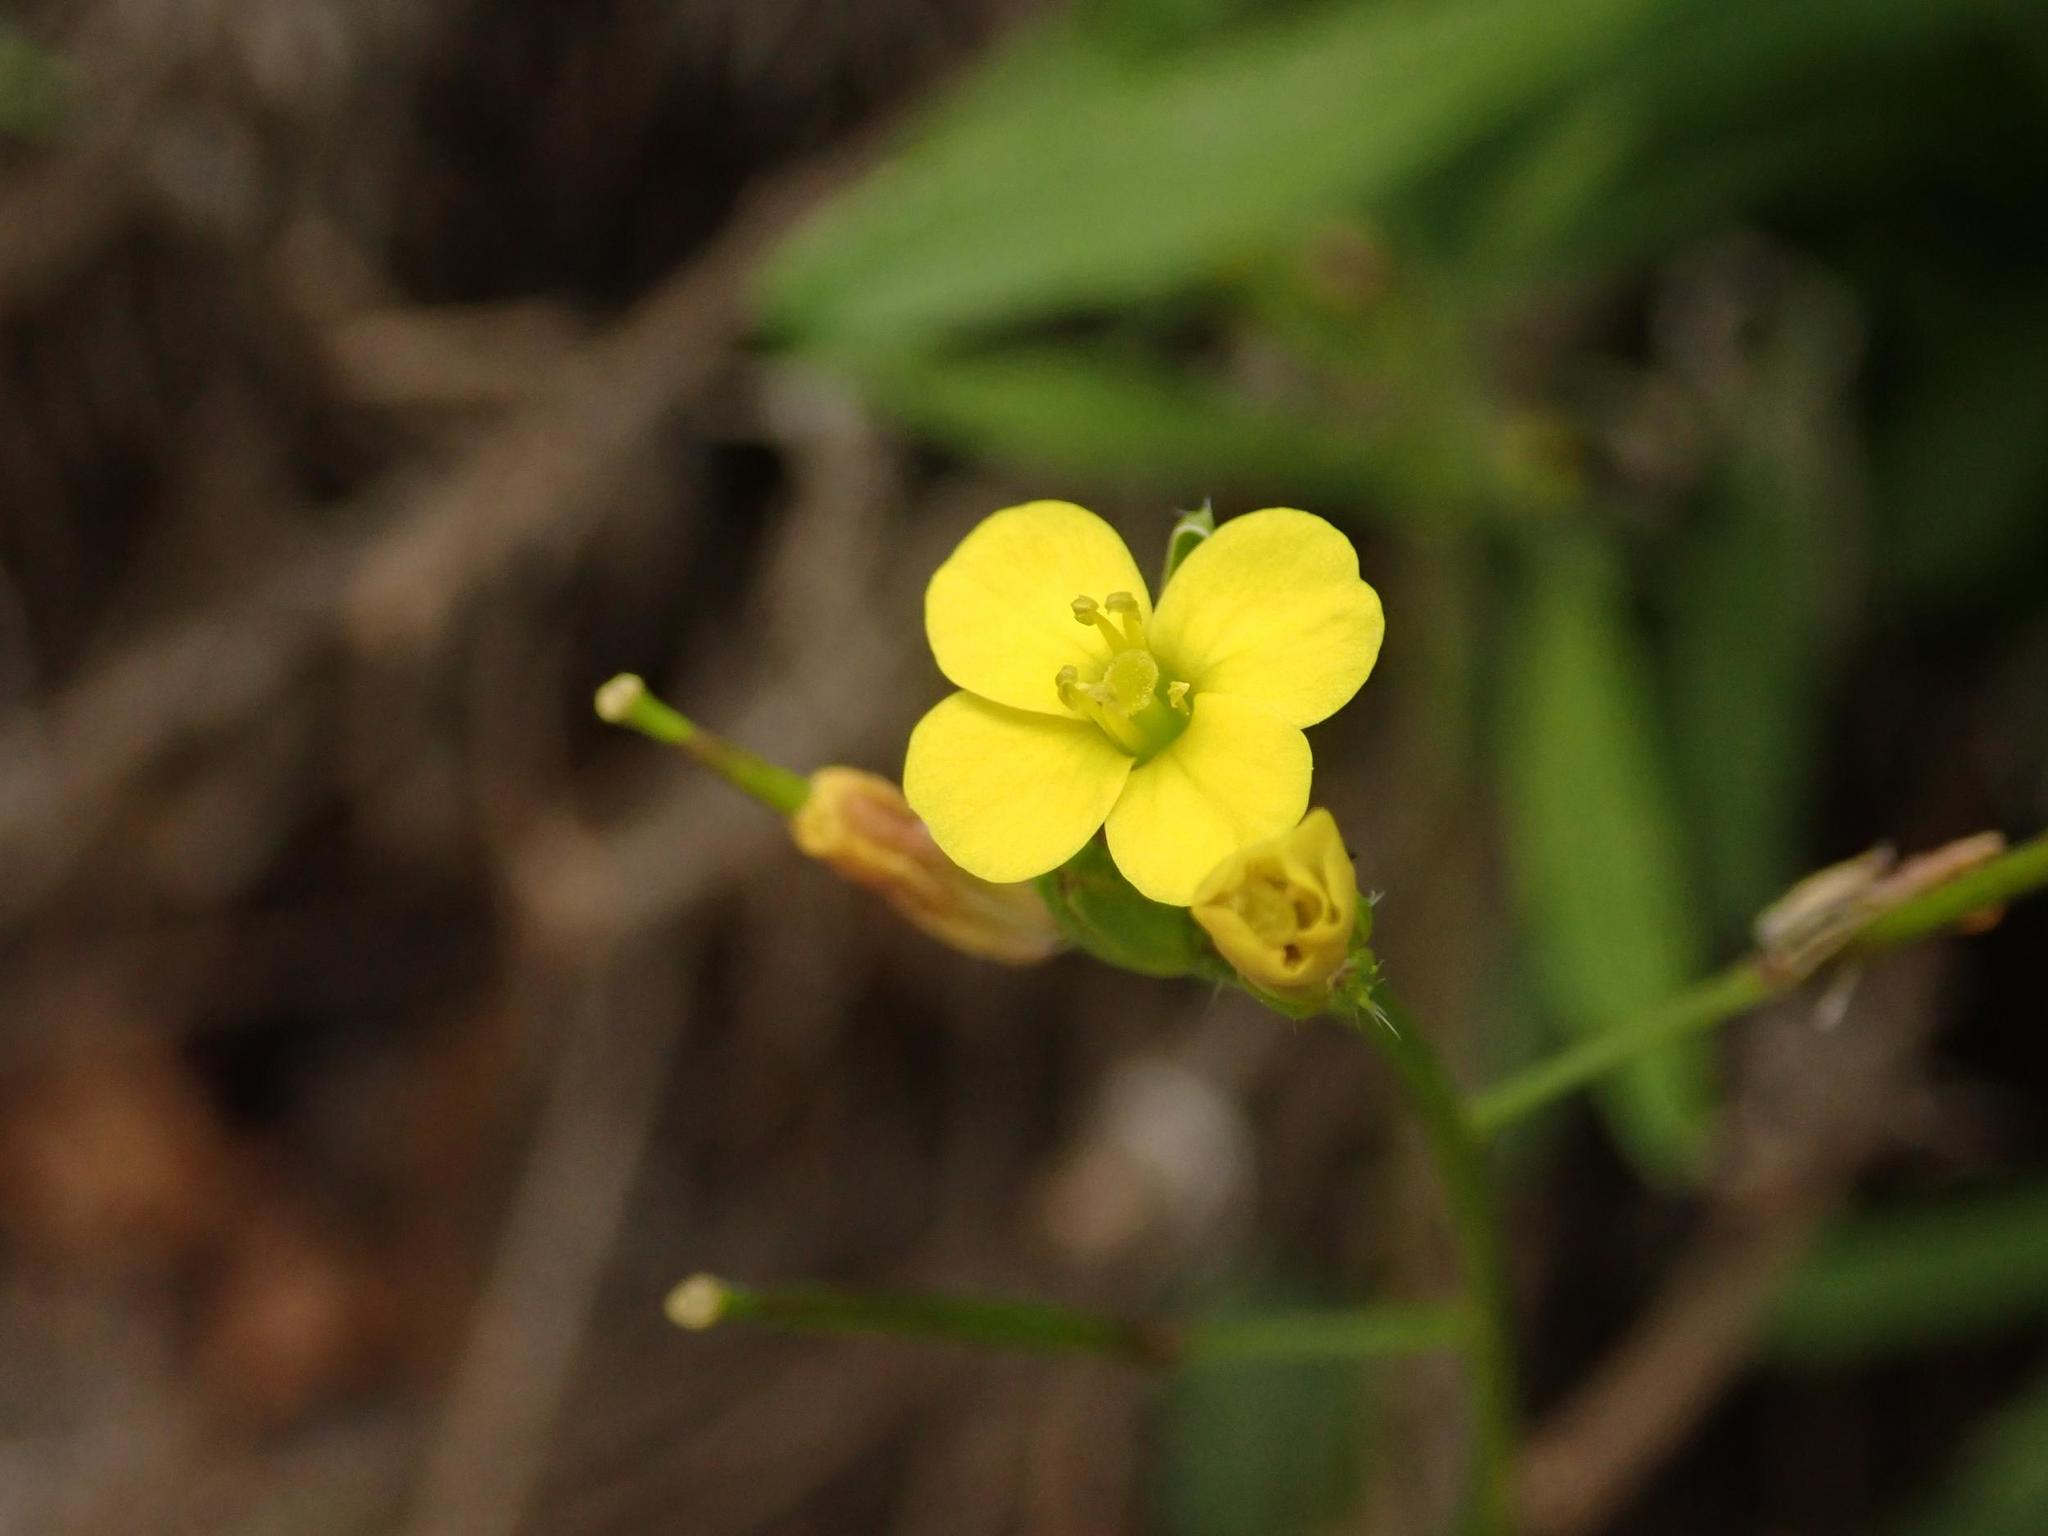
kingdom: Plantae
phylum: Tracheophyta
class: Magnoliopsida
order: Brassicales
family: Brassicaceae
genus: Diplotaxis
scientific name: Diplotaxis muralis
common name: Annual wall-rocket
